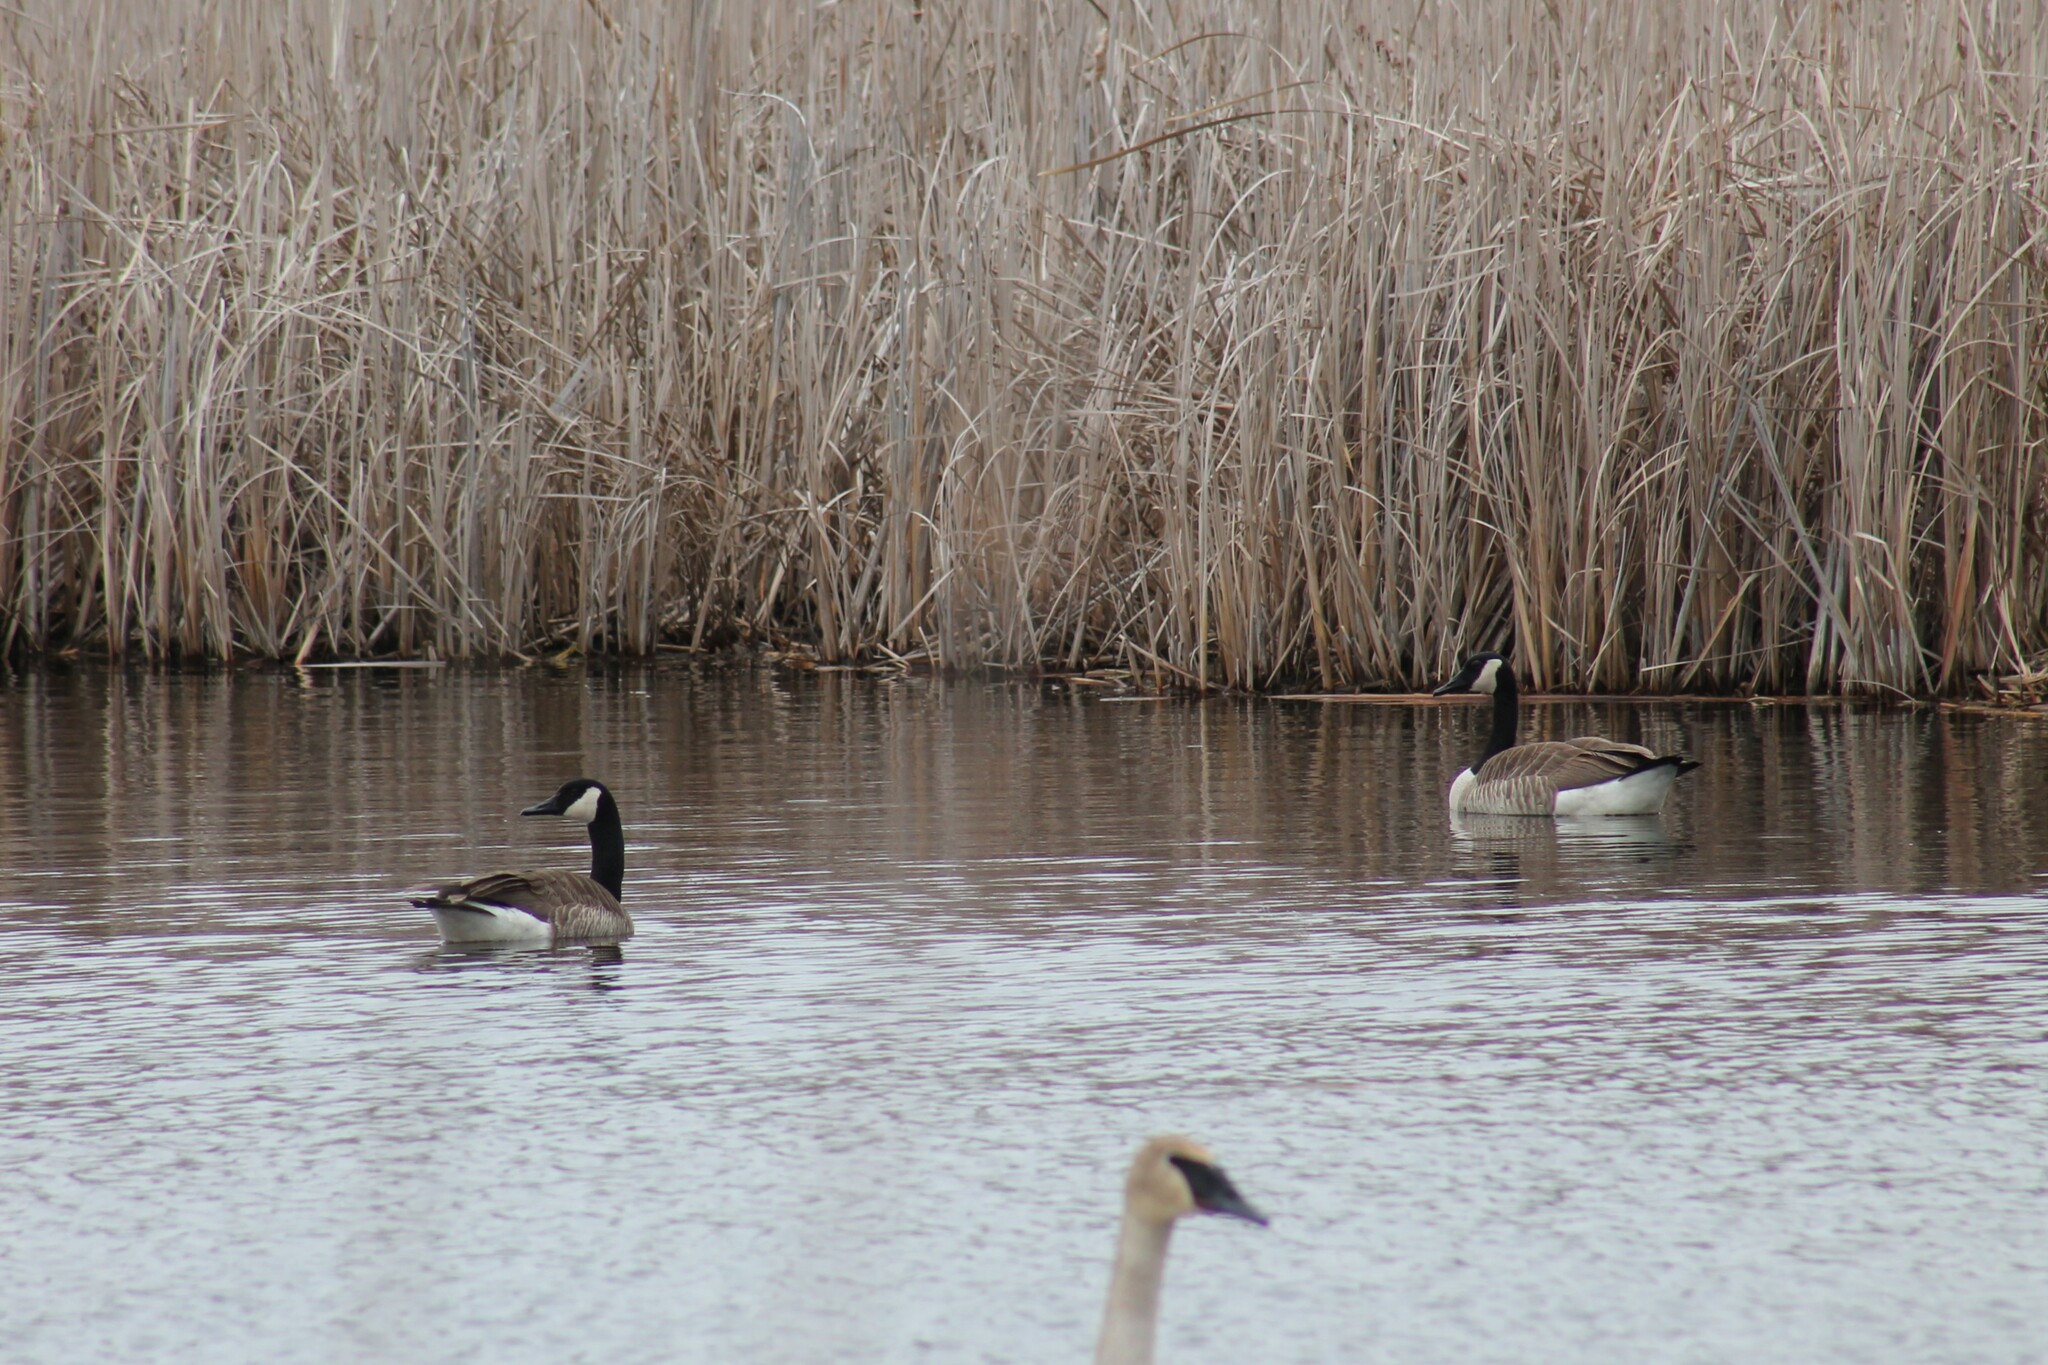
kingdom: Animalia
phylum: Chordata
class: Aves
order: Anseriformes
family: Anatidae
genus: Branta
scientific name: Branta canadensis
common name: Canada goose
